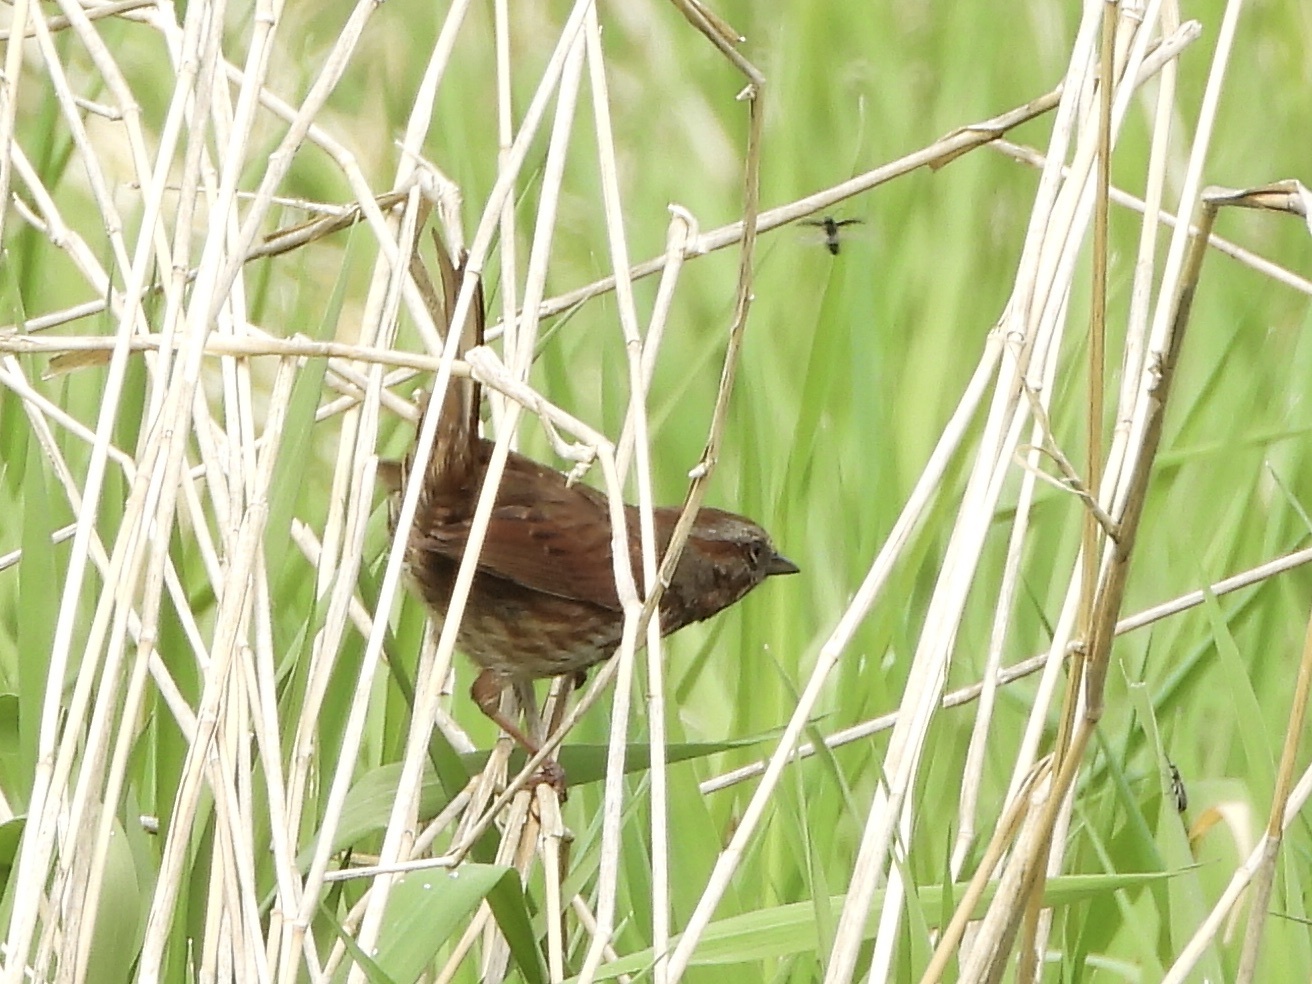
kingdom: Animalia
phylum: Chordata
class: Aves
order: Passeriformes
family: Passerellidae
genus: Melospiza
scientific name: Melospiza melodia
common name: Song sparrow
